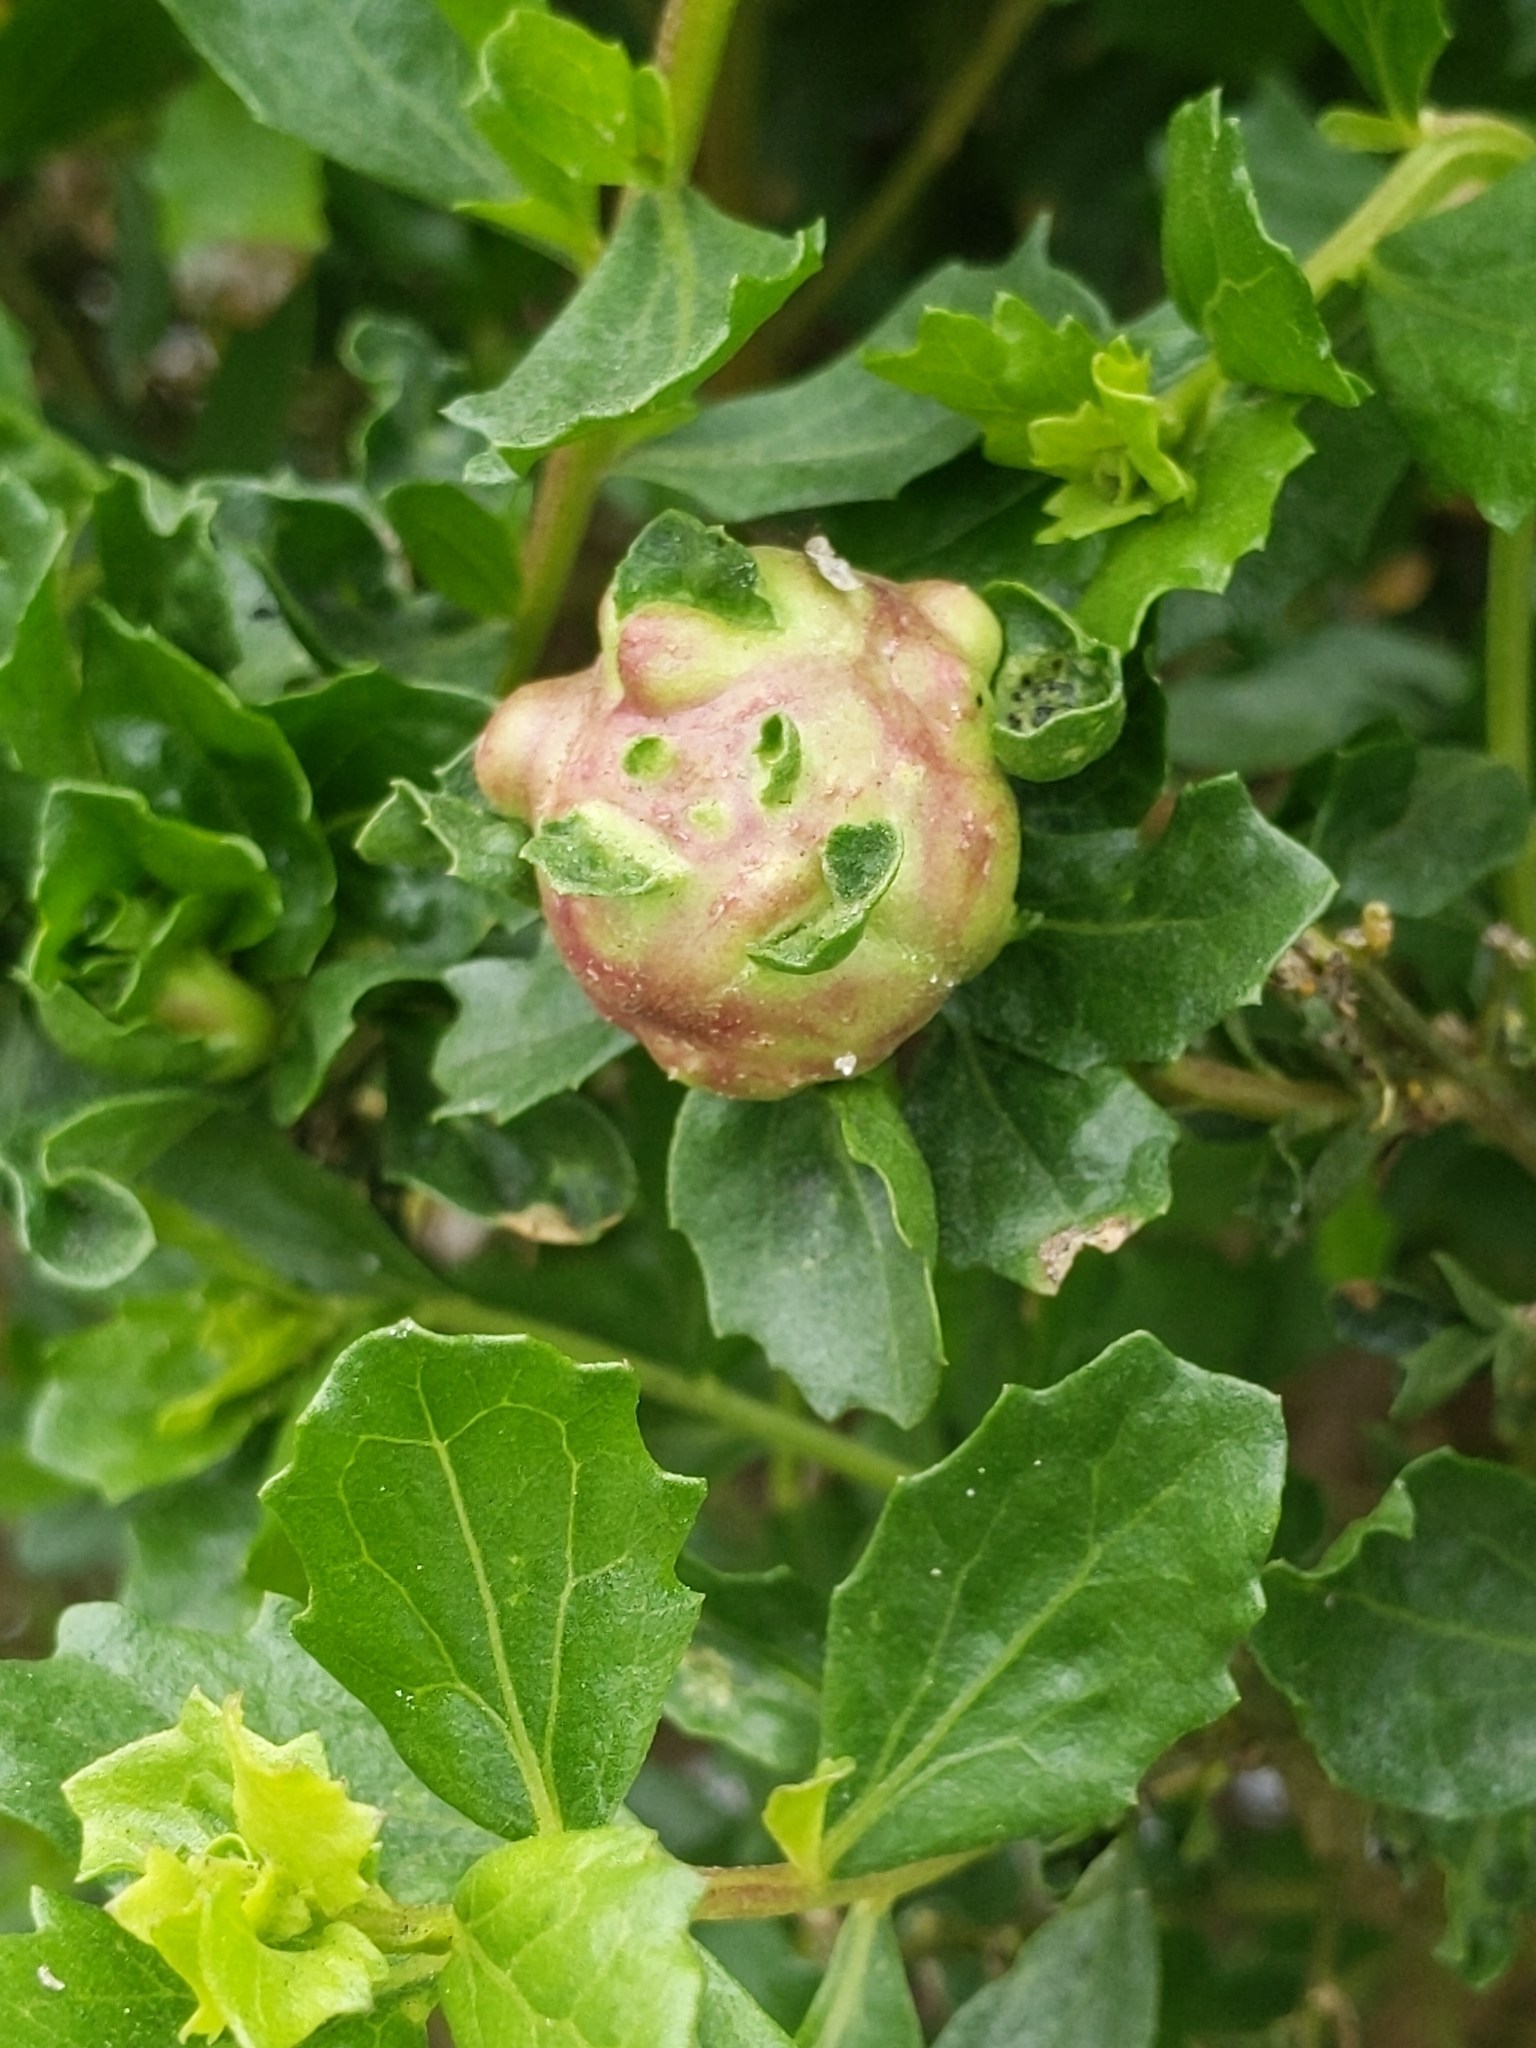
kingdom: Animalia
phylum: Arthropoda
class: Insecta
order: Diptera
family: Cecidomyiidae
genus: Rhopalomyia
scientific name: Rhopalomyia californica
